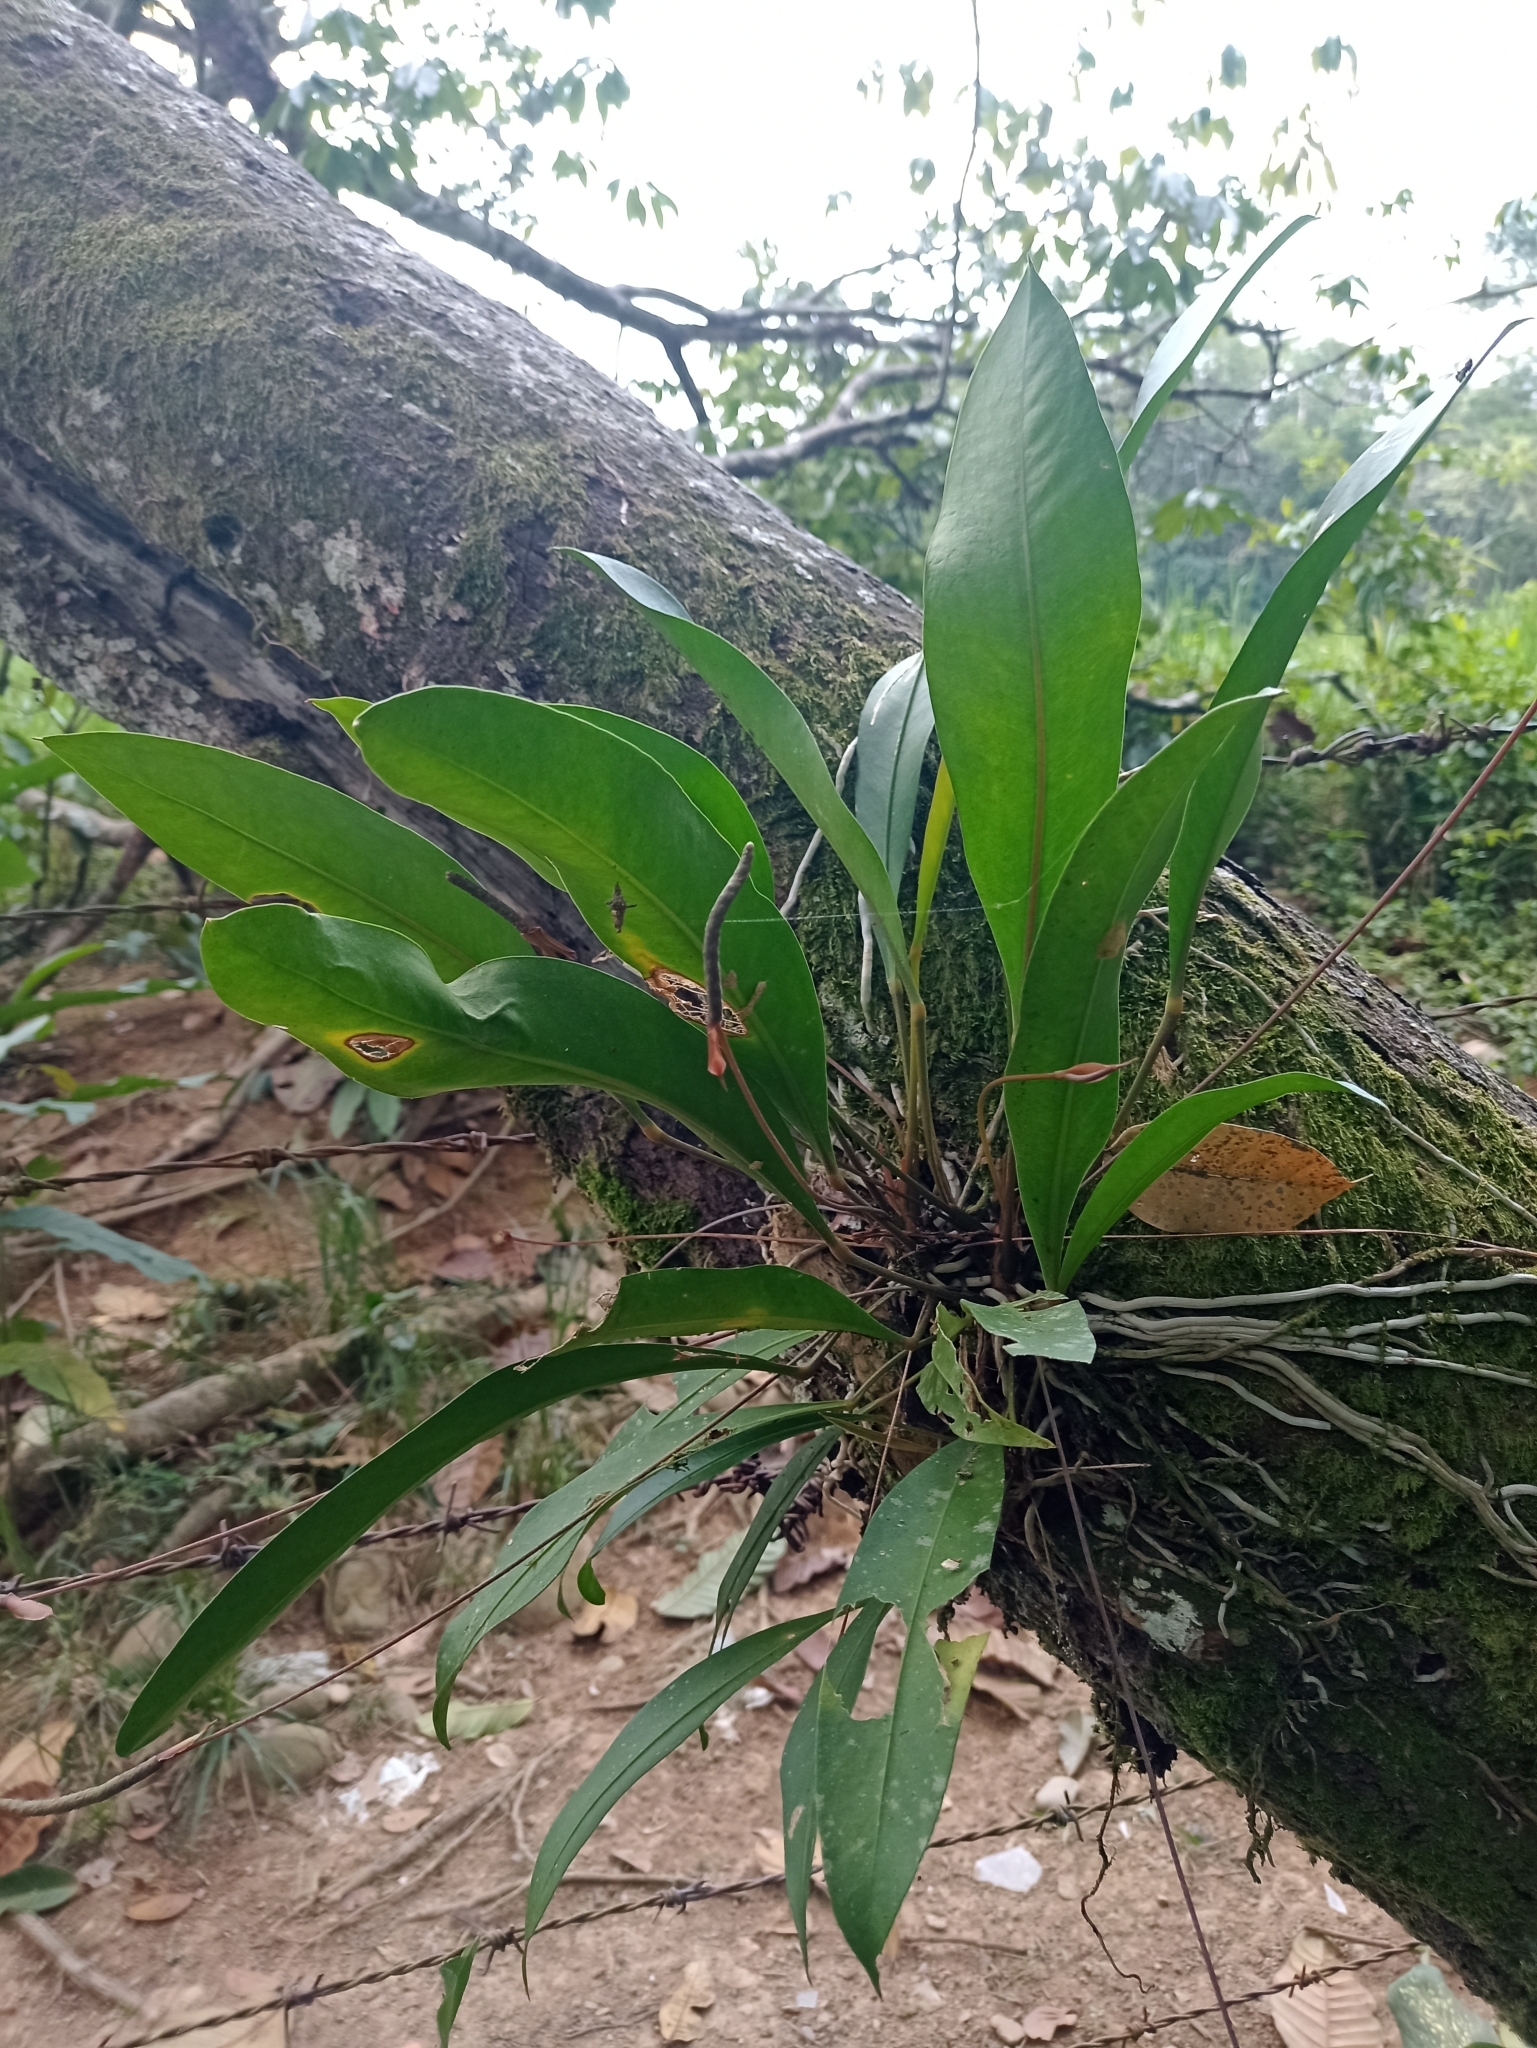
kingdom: Plantae
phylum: Tracheophyta
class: Liliopsida
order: Alismatales
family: Araceae
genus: Anthurium
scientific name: Anthurium gracile
